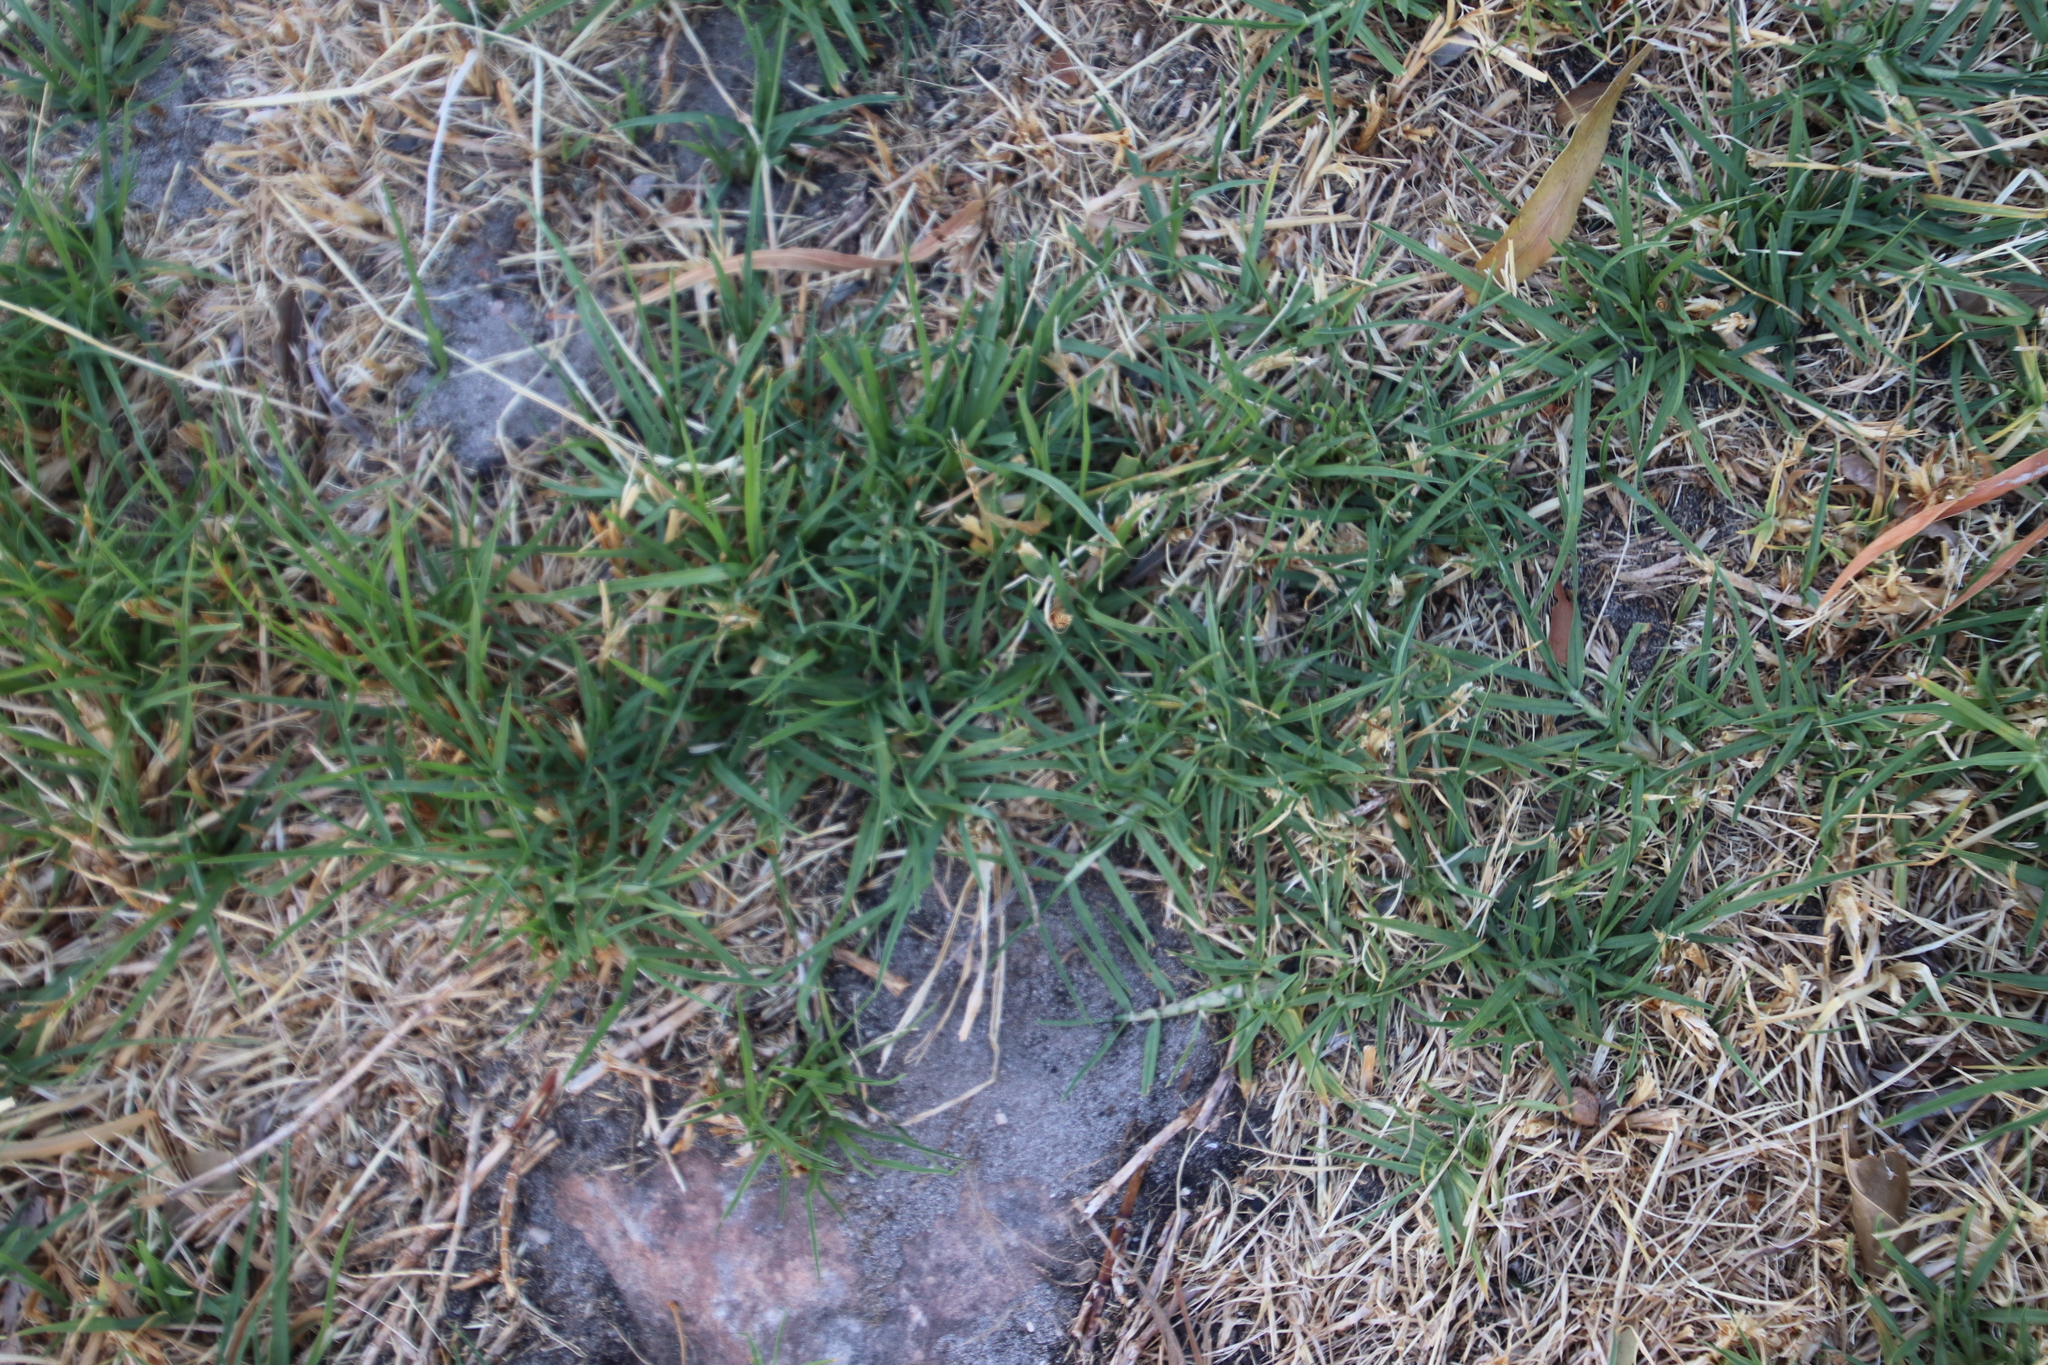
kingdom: Plantae
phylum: Tracheophyta
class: Liliopsida
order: Poales
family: Poaceae
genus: Cenchrus
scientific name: Cenchrus clandestinus
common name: Kikuyugrass
